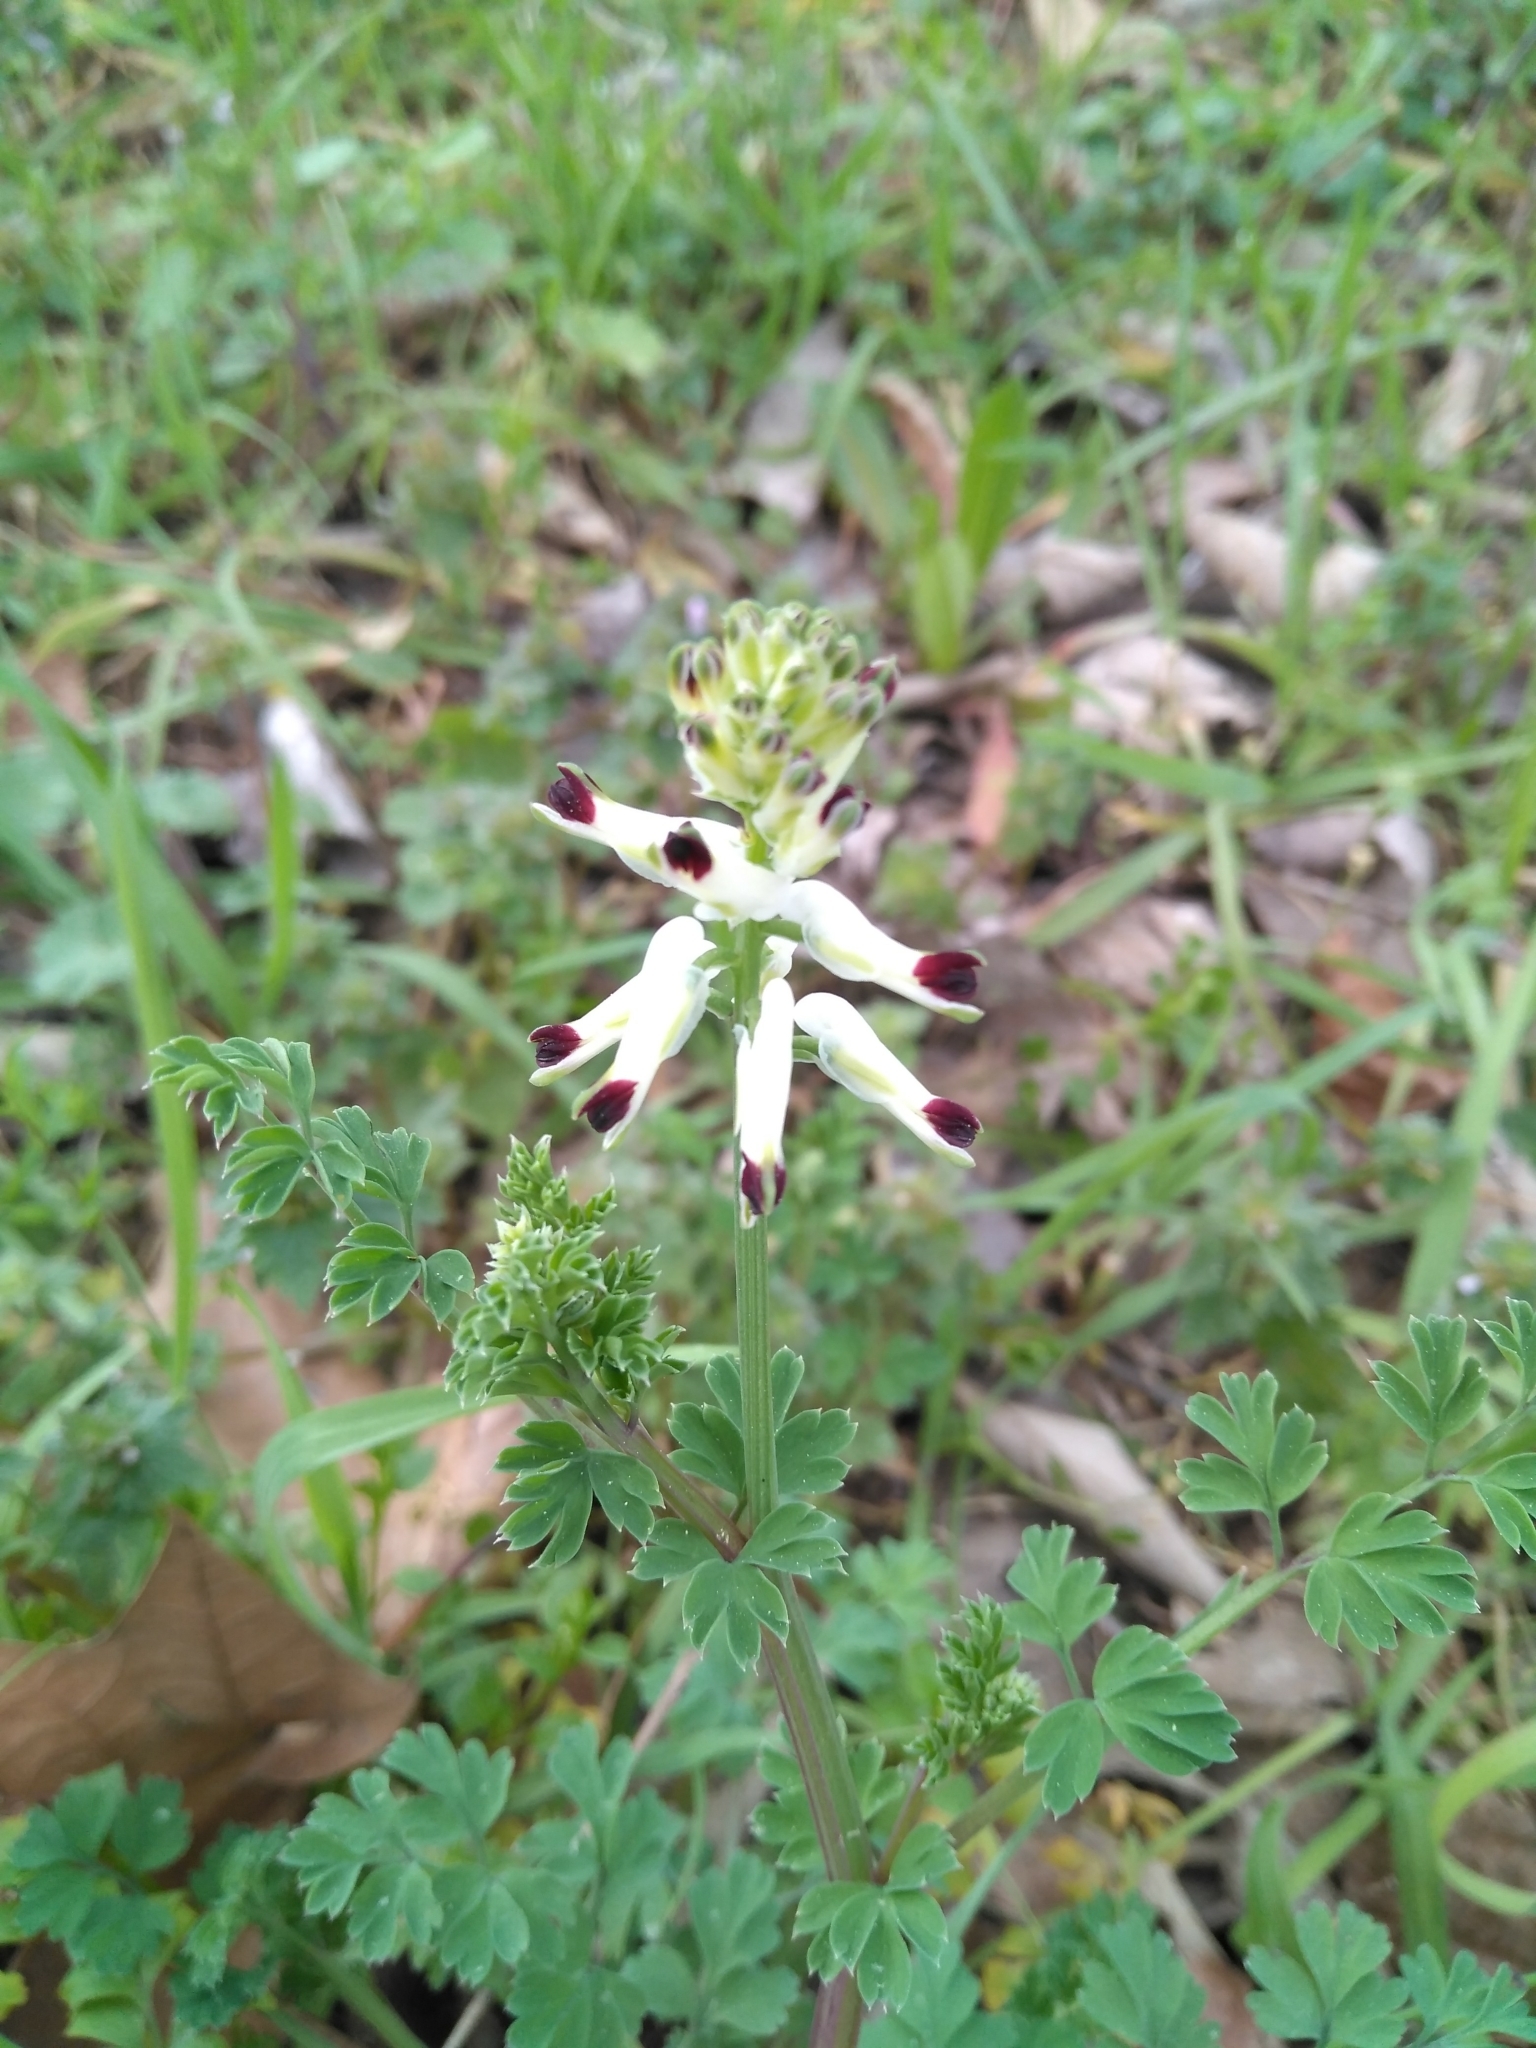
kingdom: Plantae
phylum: Tracheophyta
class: Magnoliopsida
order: Ranunculales
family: Papaveraceae
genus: Fumaria
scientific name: Fumaria capreolata
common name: White ramping-fumitory
